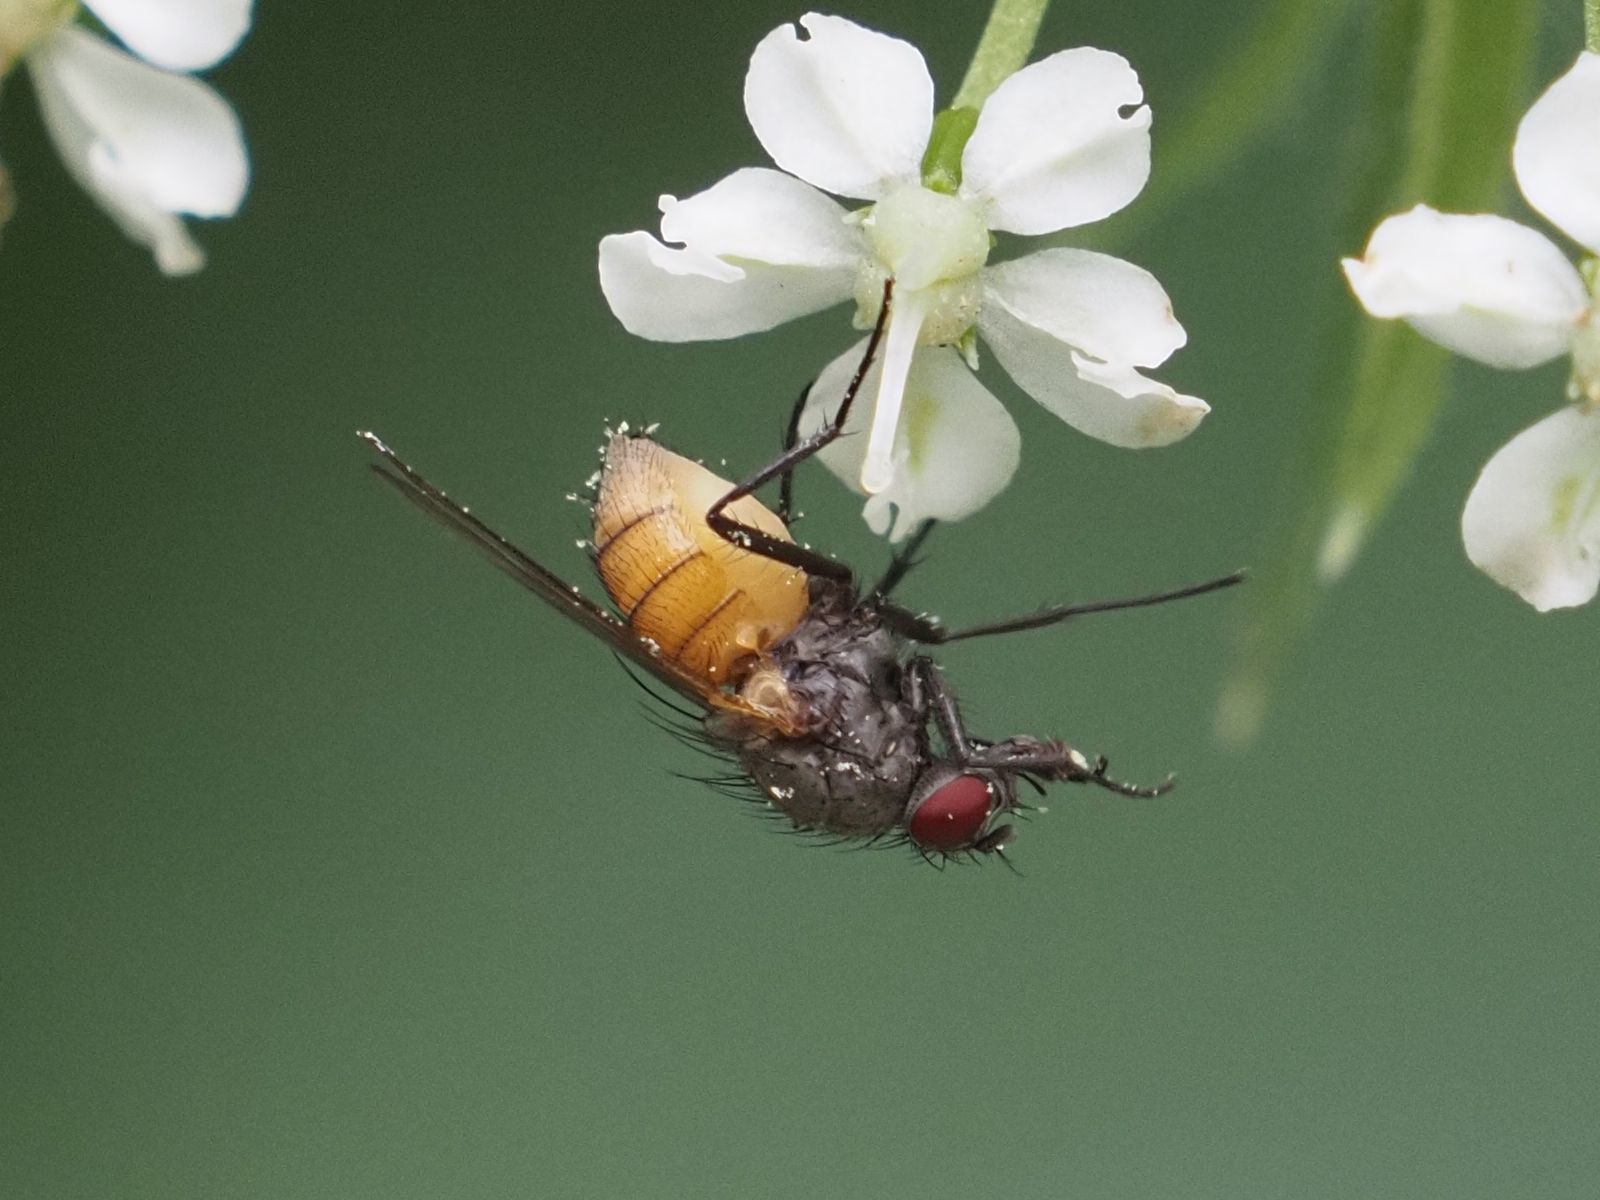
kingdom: Animalia
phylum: Arthropoda
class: Insecta
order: Diptera
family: Muscidae
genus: Thricops
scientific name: Thricops semicinereus
